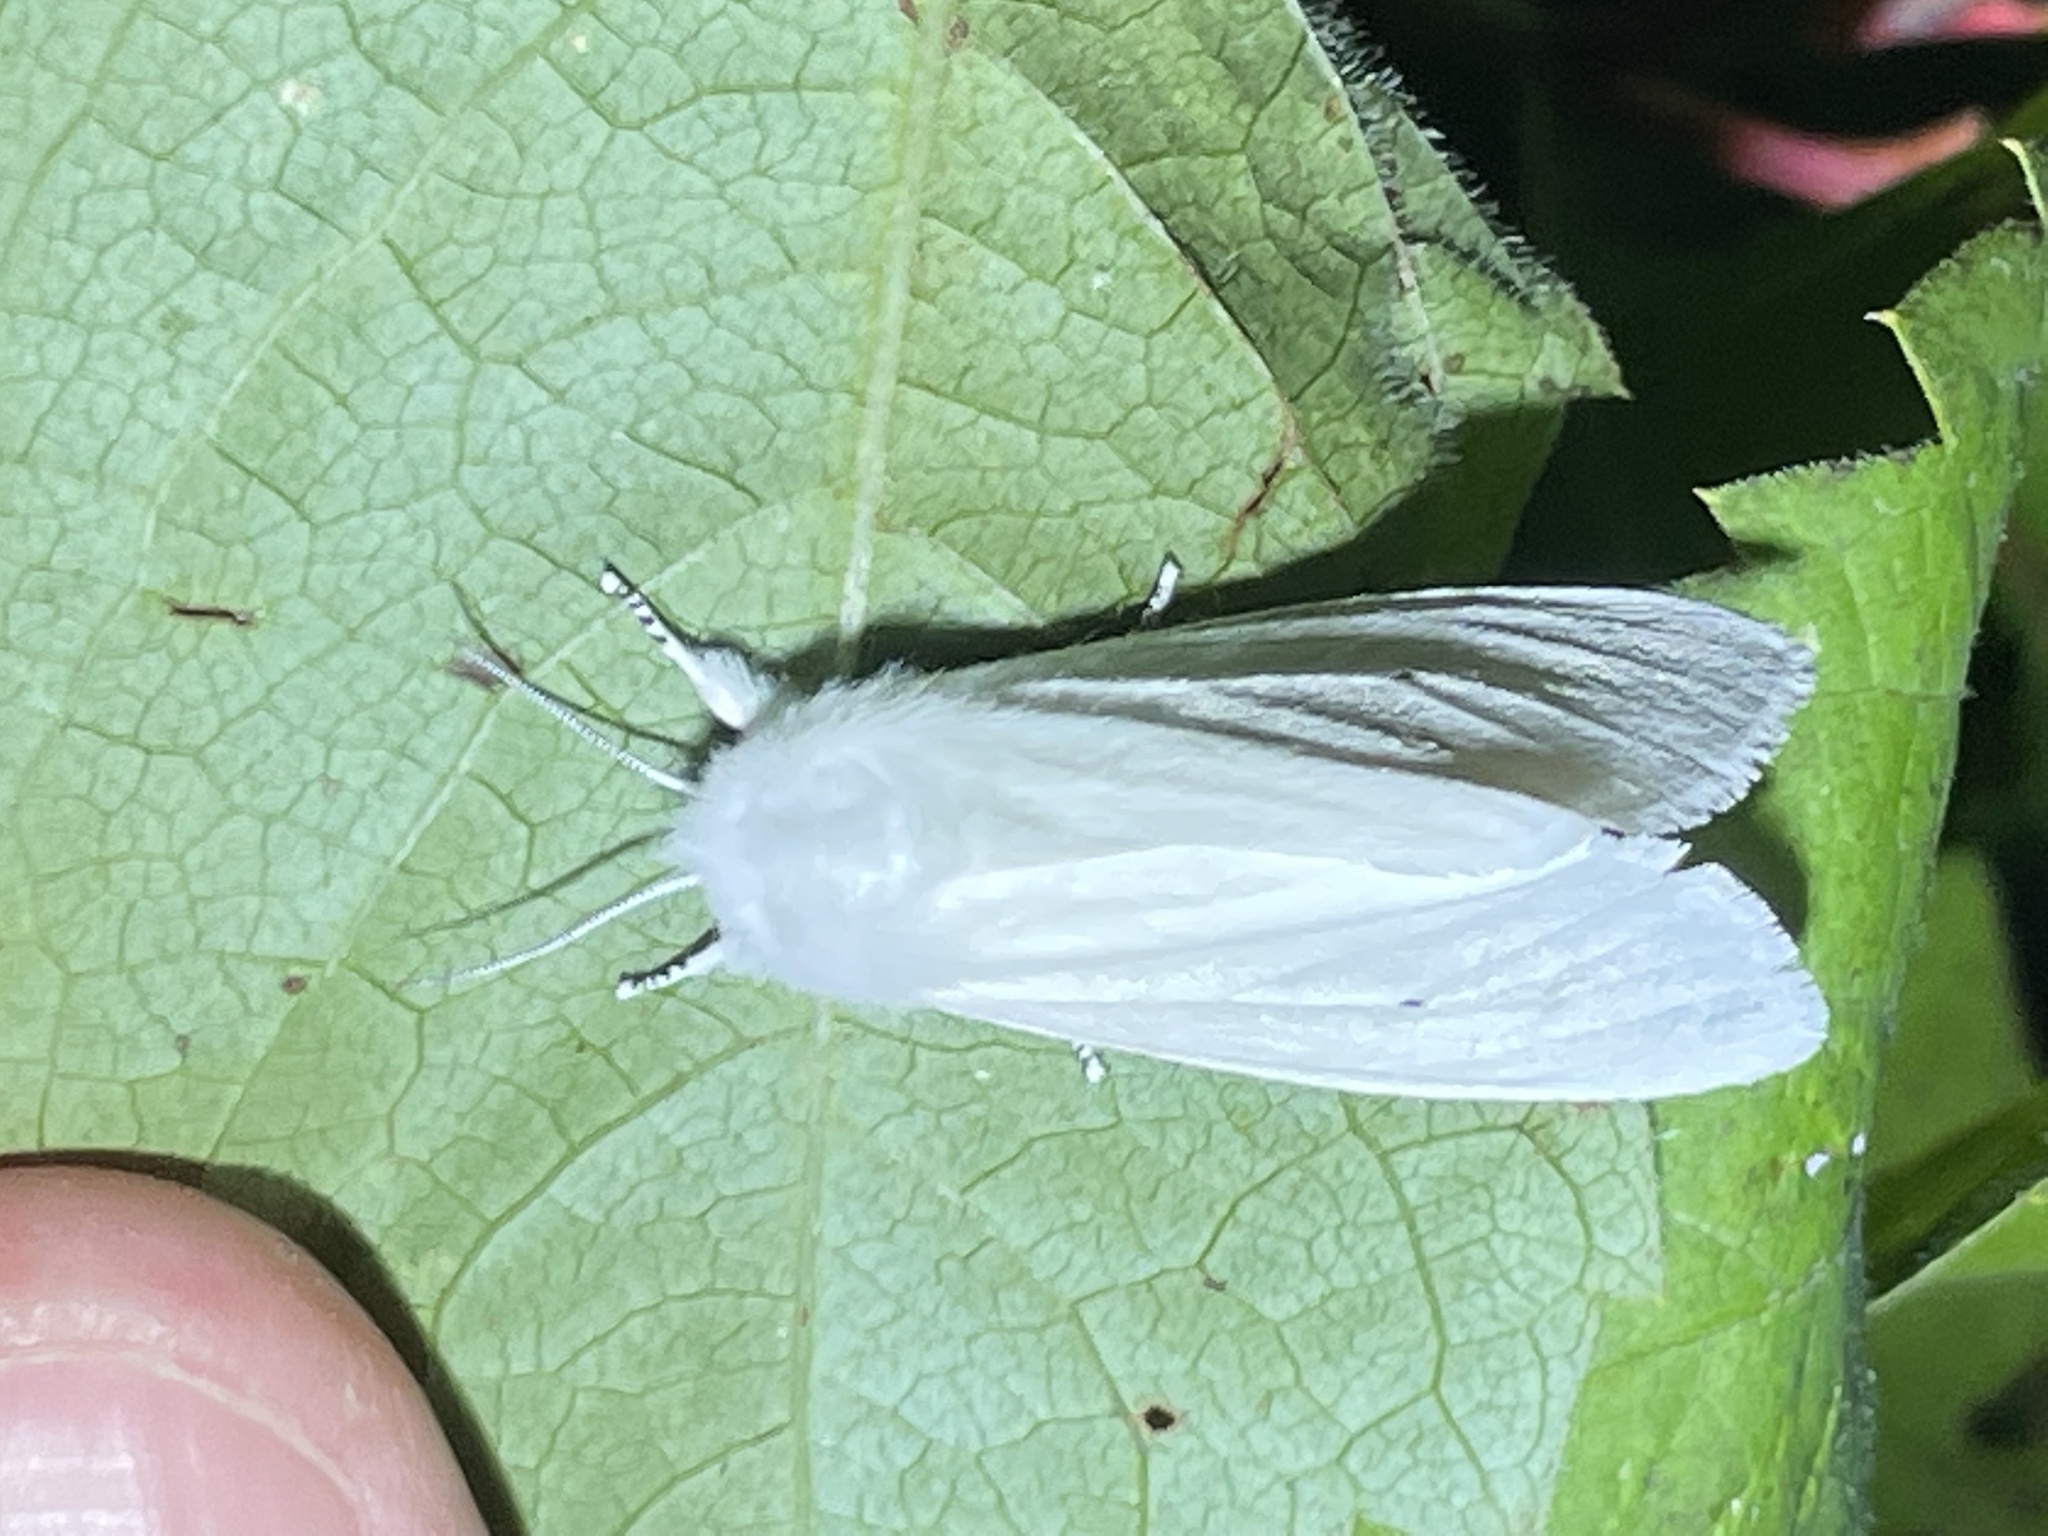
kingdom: Animalia
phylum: Arthropoda
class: Insecta
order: Lepidoptera
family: Erebidae
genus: Spilosoma
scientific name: Spilosoma virginica
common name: Virginia tiger moth
